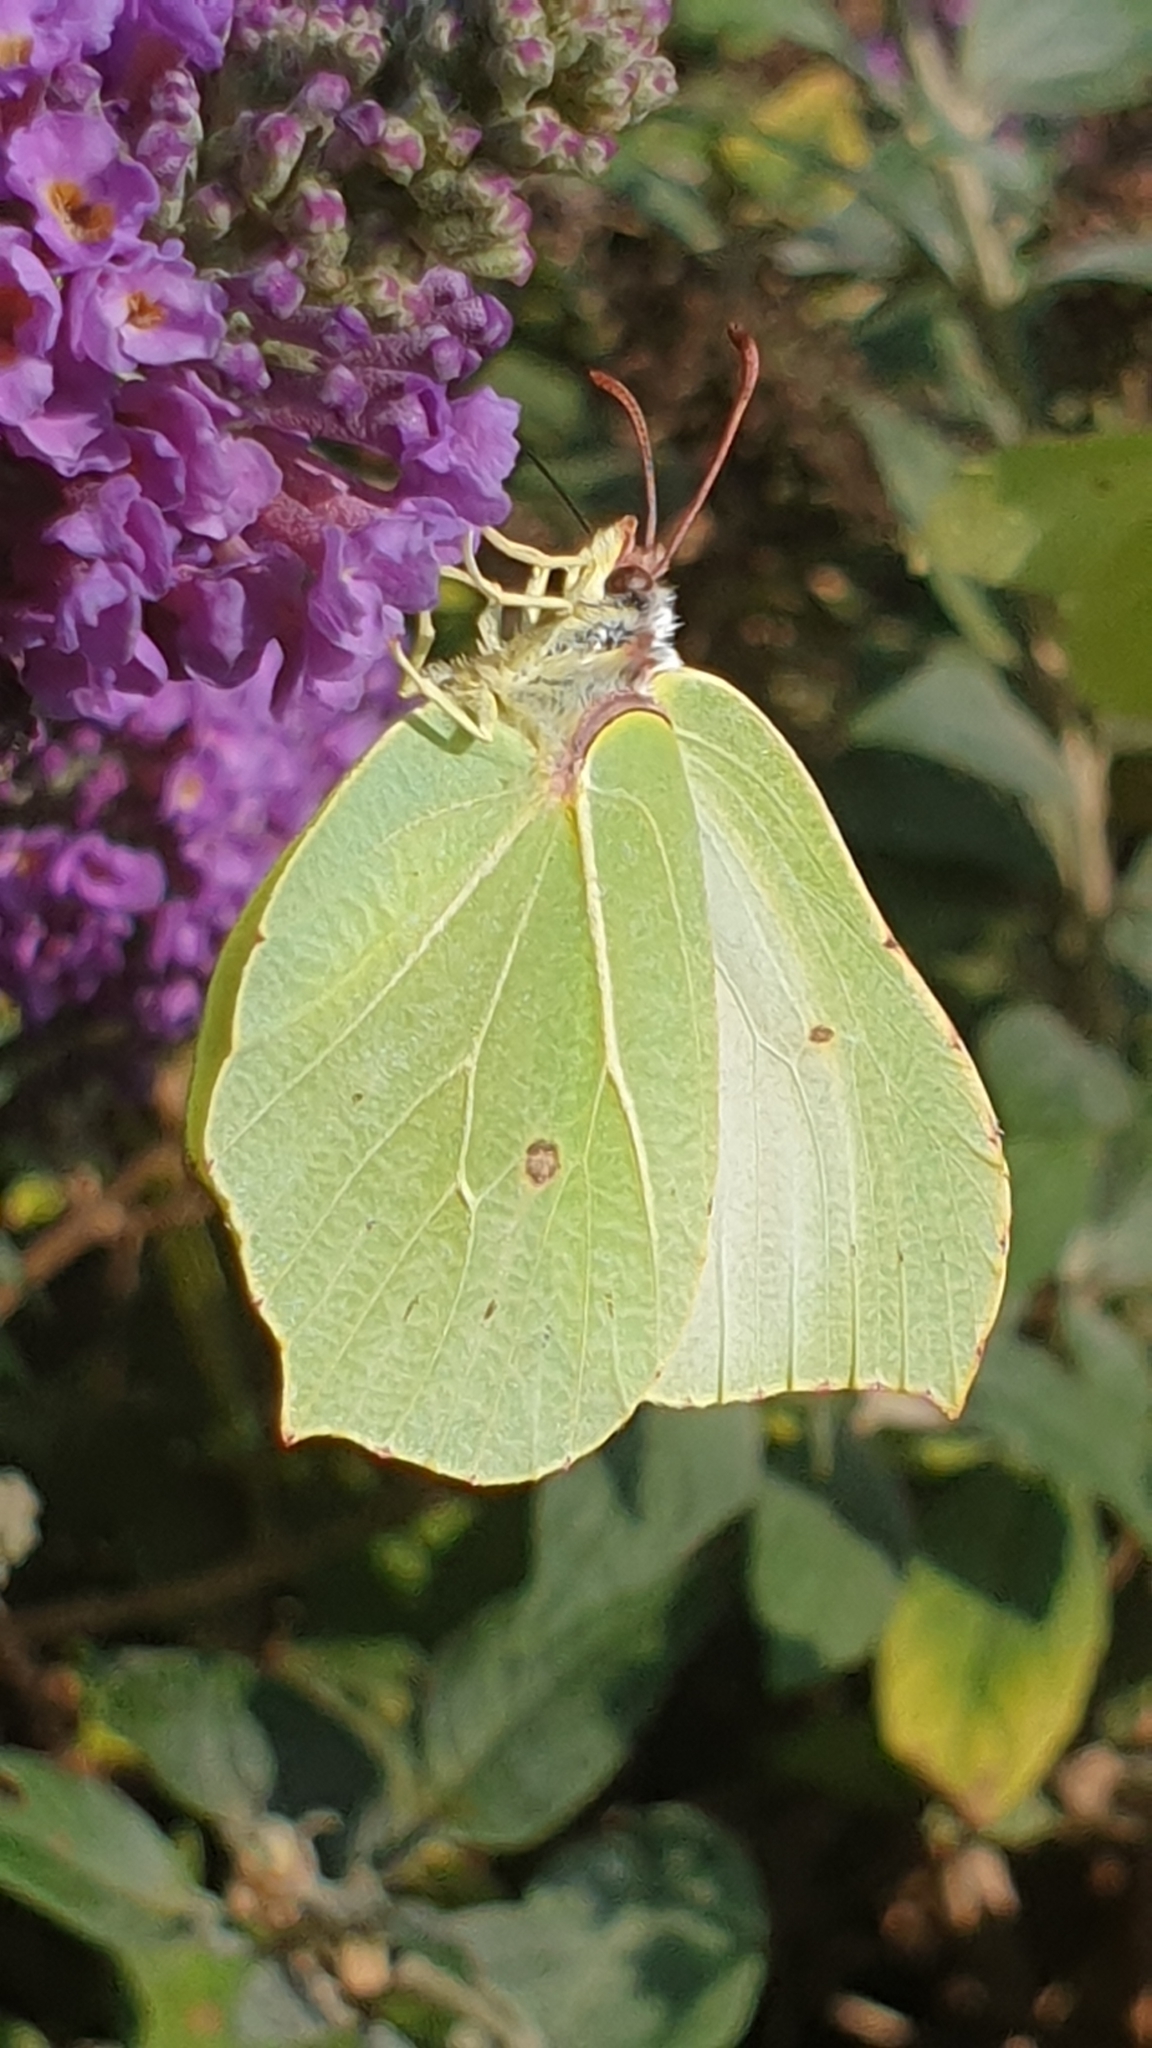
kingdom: Animalia
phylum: Arthropoda
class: Insecta
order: Lepidoptera
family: Pieridae
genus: Gonepteryx
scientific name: Gonepteryx rhamni
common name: Brimstone
